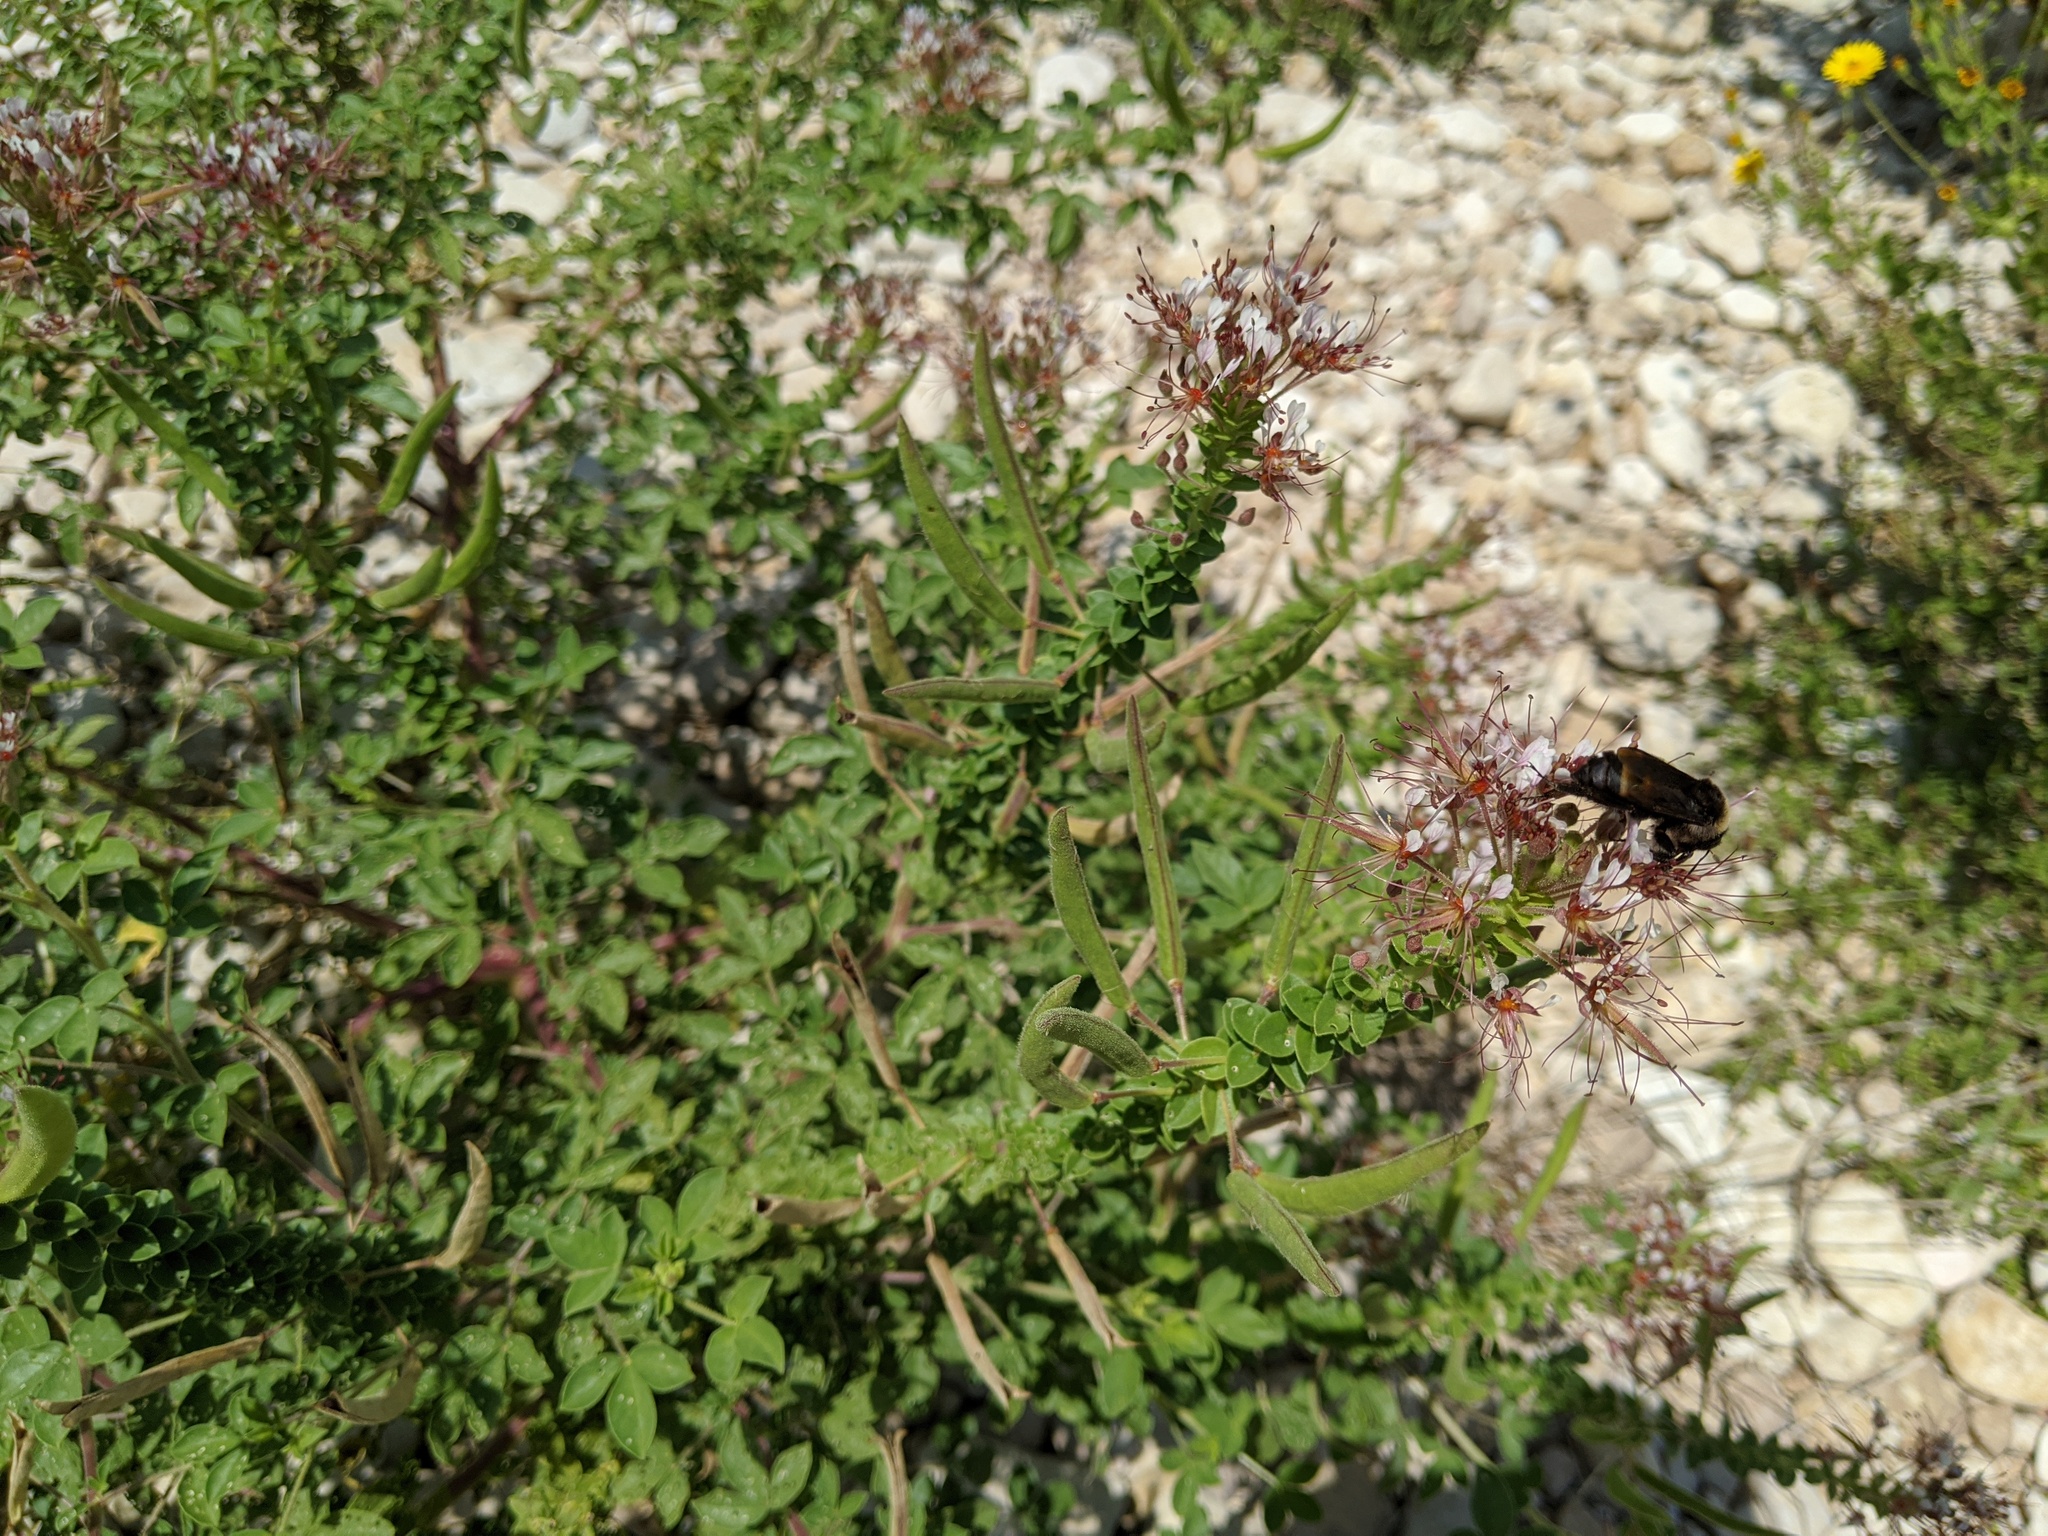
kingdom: Plantae
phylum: Tracheophyta
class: Magnoliopsida
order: Brassicales
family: Cleomaceae
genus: Polanisia
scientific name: Polanisia dodecandra
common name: Clammyweed
